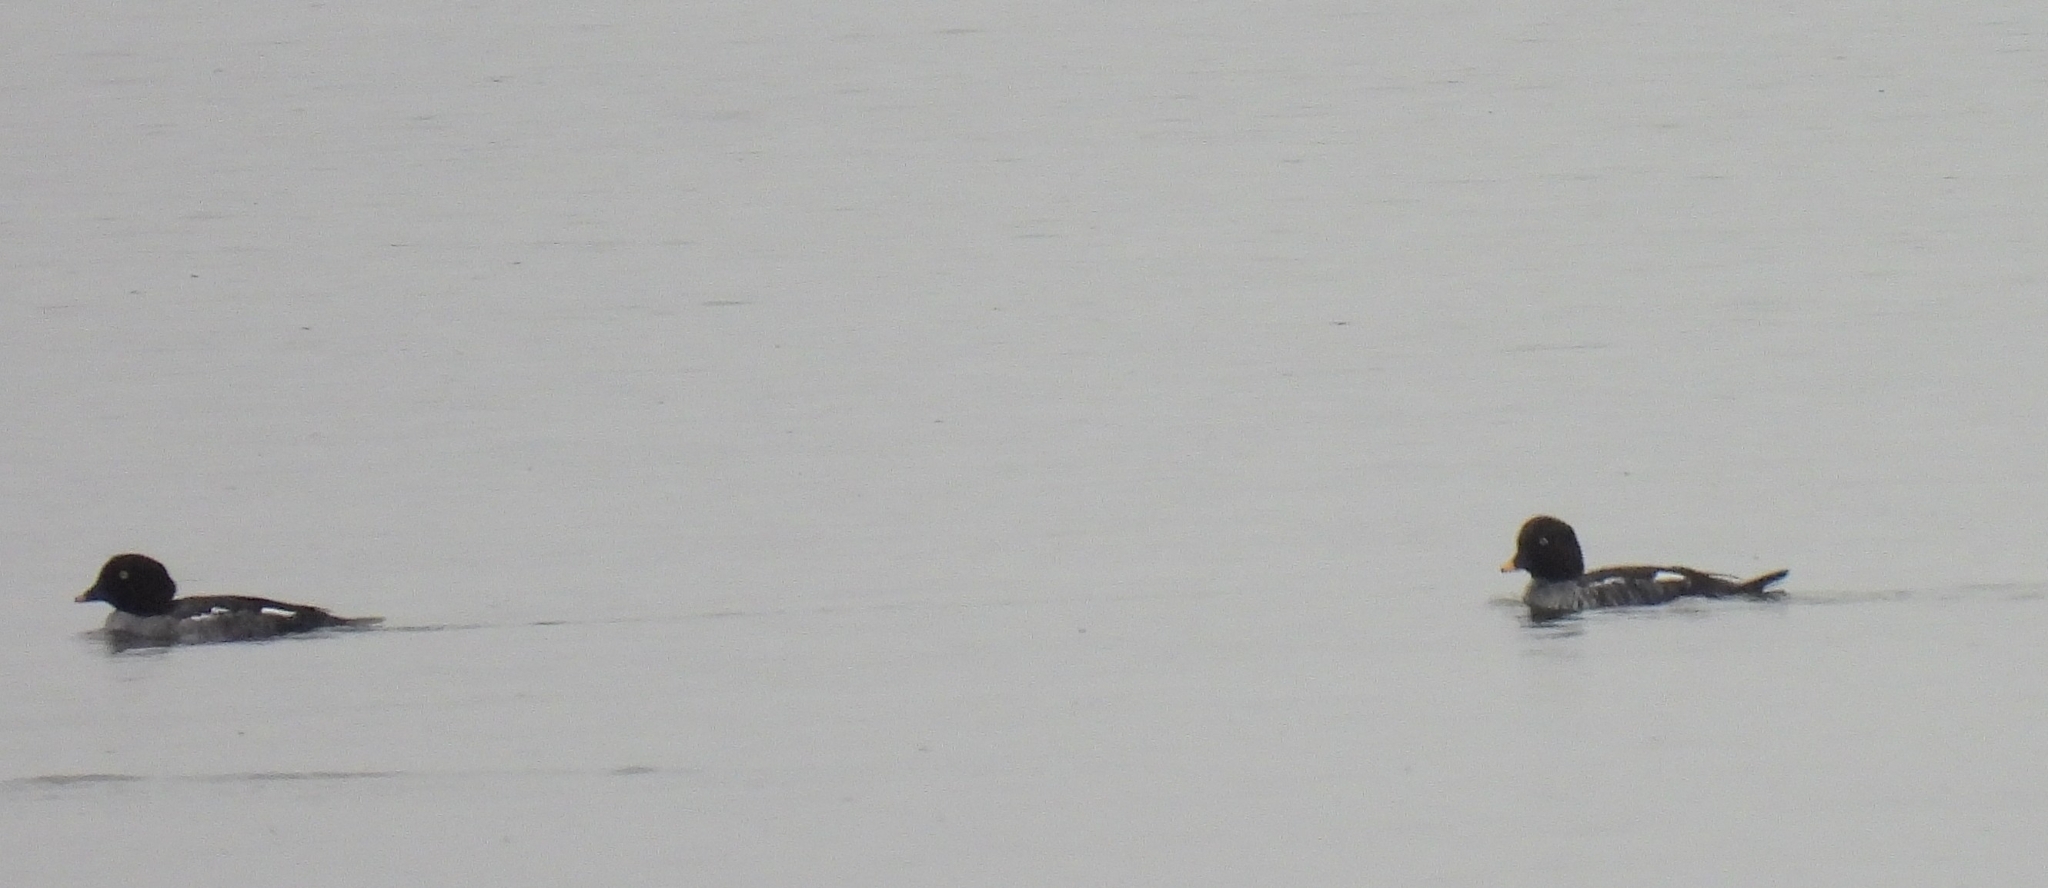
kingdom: Animalia
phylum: Chordata
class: Aves
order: Anseriformes
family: Anatidae
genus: Bucephala
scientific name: Bucephala clangula
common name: Common goldeneye
